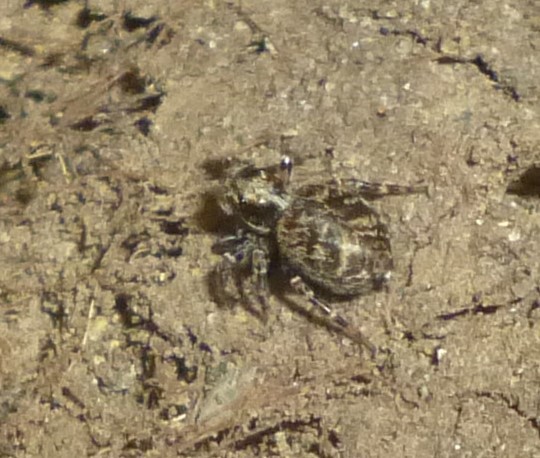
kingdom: Animalia
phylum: Arthropoda
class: Arachnida
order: Araneae
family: Salticidae
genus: Pseudeuophrys
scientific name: Pseudeuophrys erratica
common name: Jumping spider
